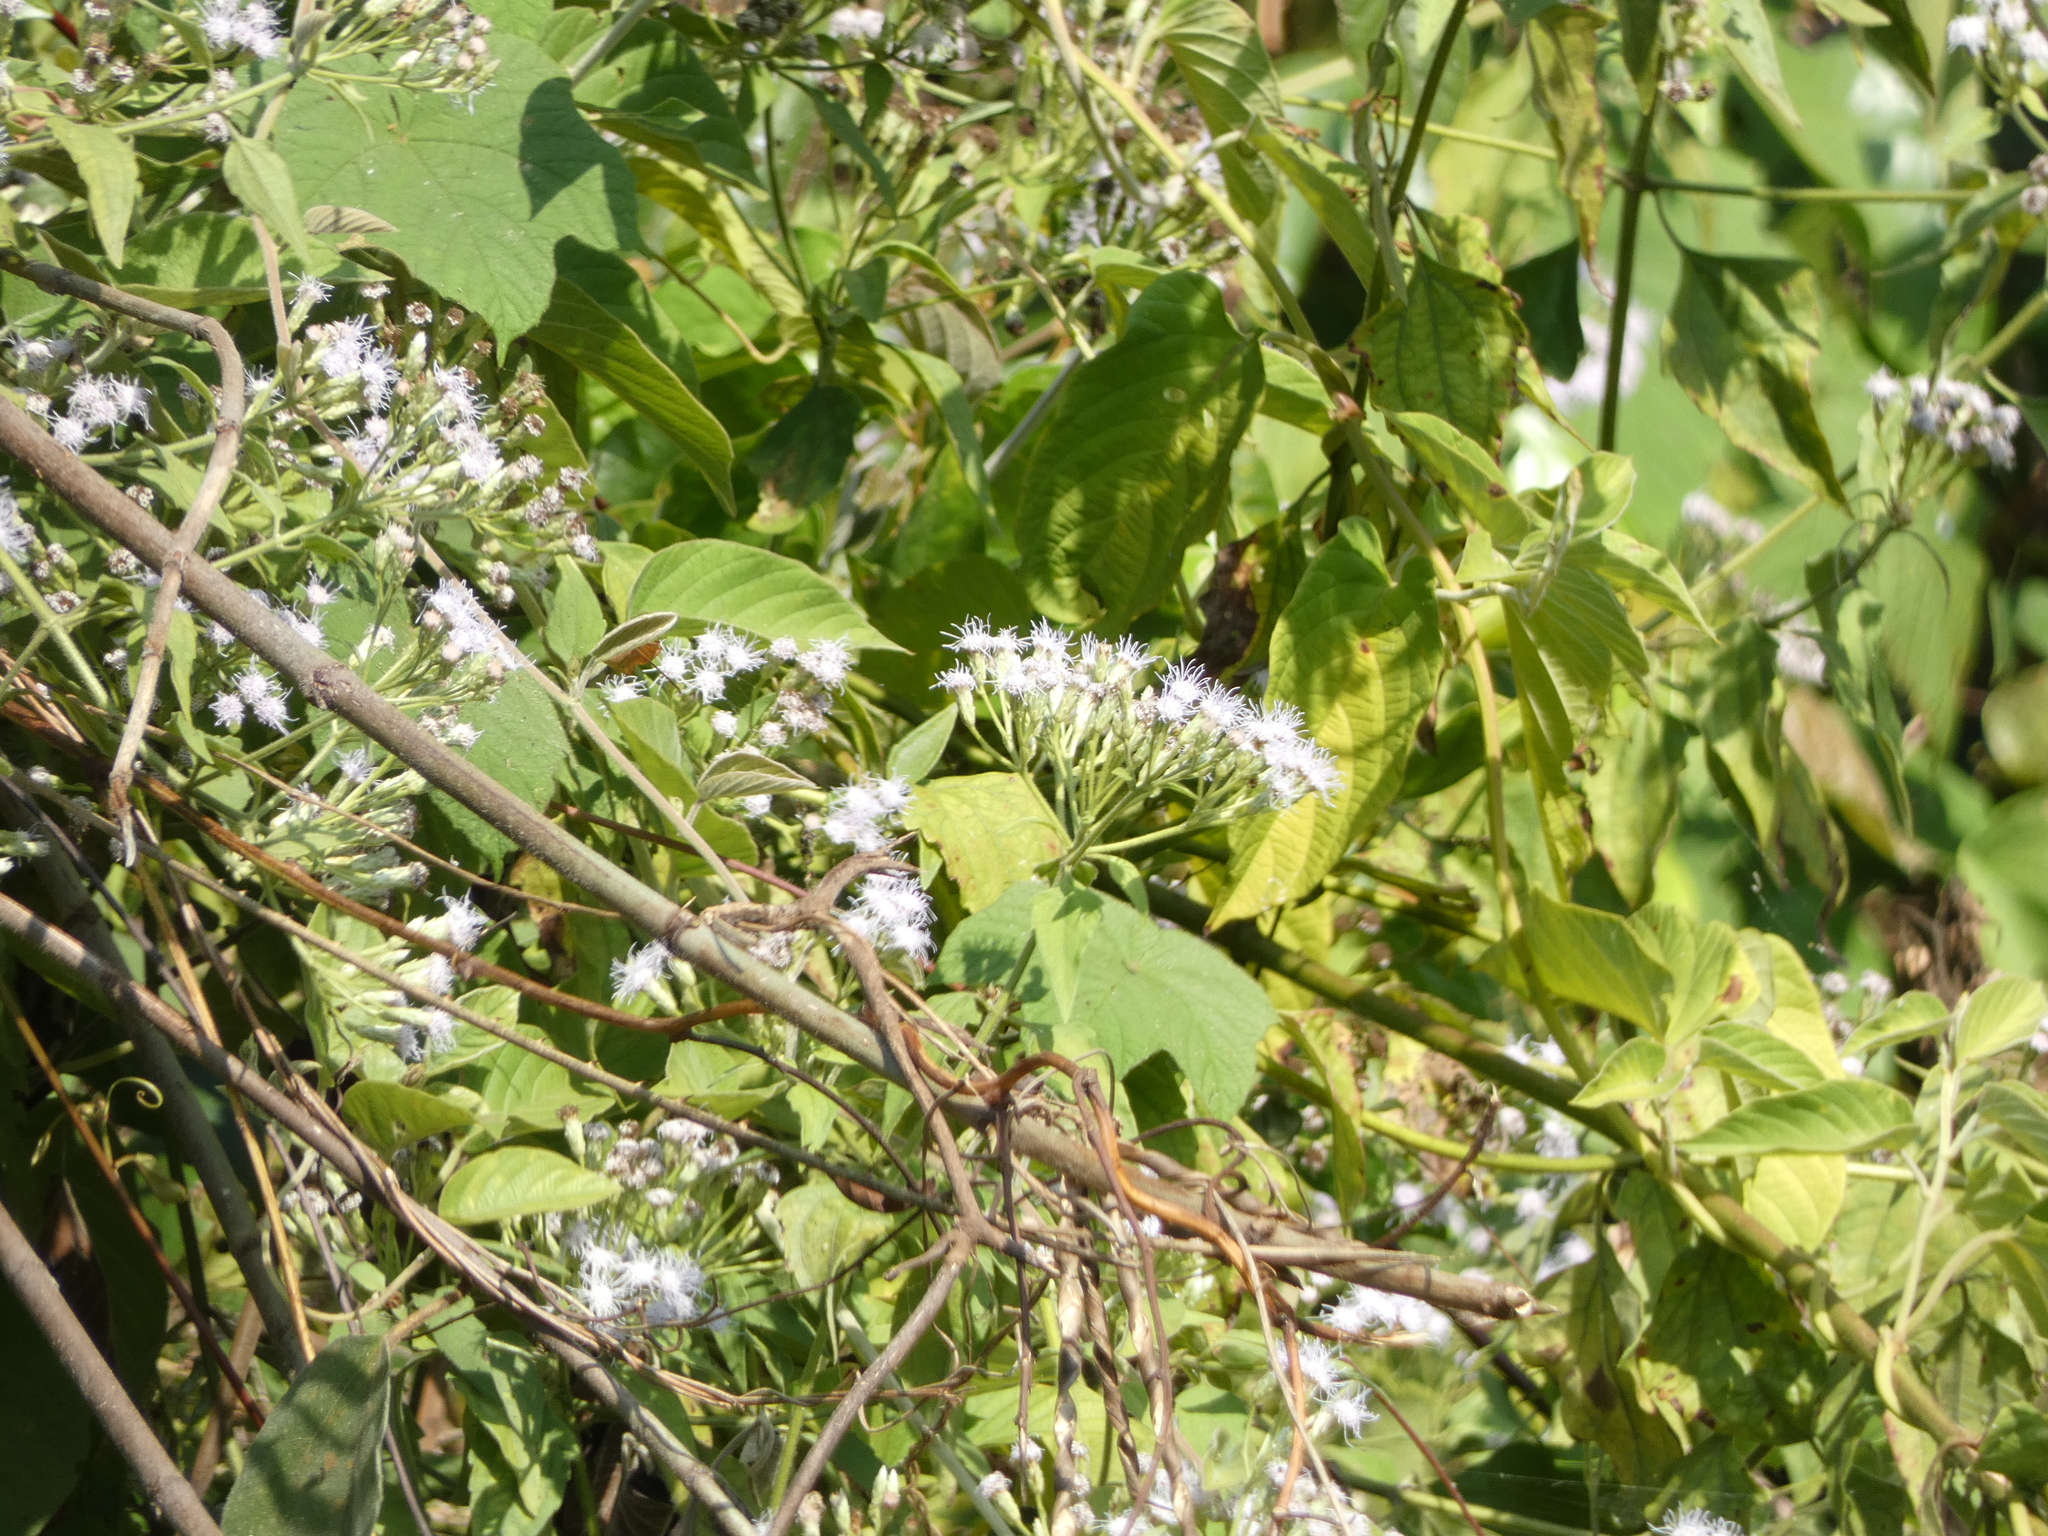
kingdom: Plantae
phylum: Tracheophyta
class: Magnoliopsida
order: Asterales
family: Asteraceae
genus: Chromolaena
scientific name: Chromolaena odorata
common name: Siamweed
